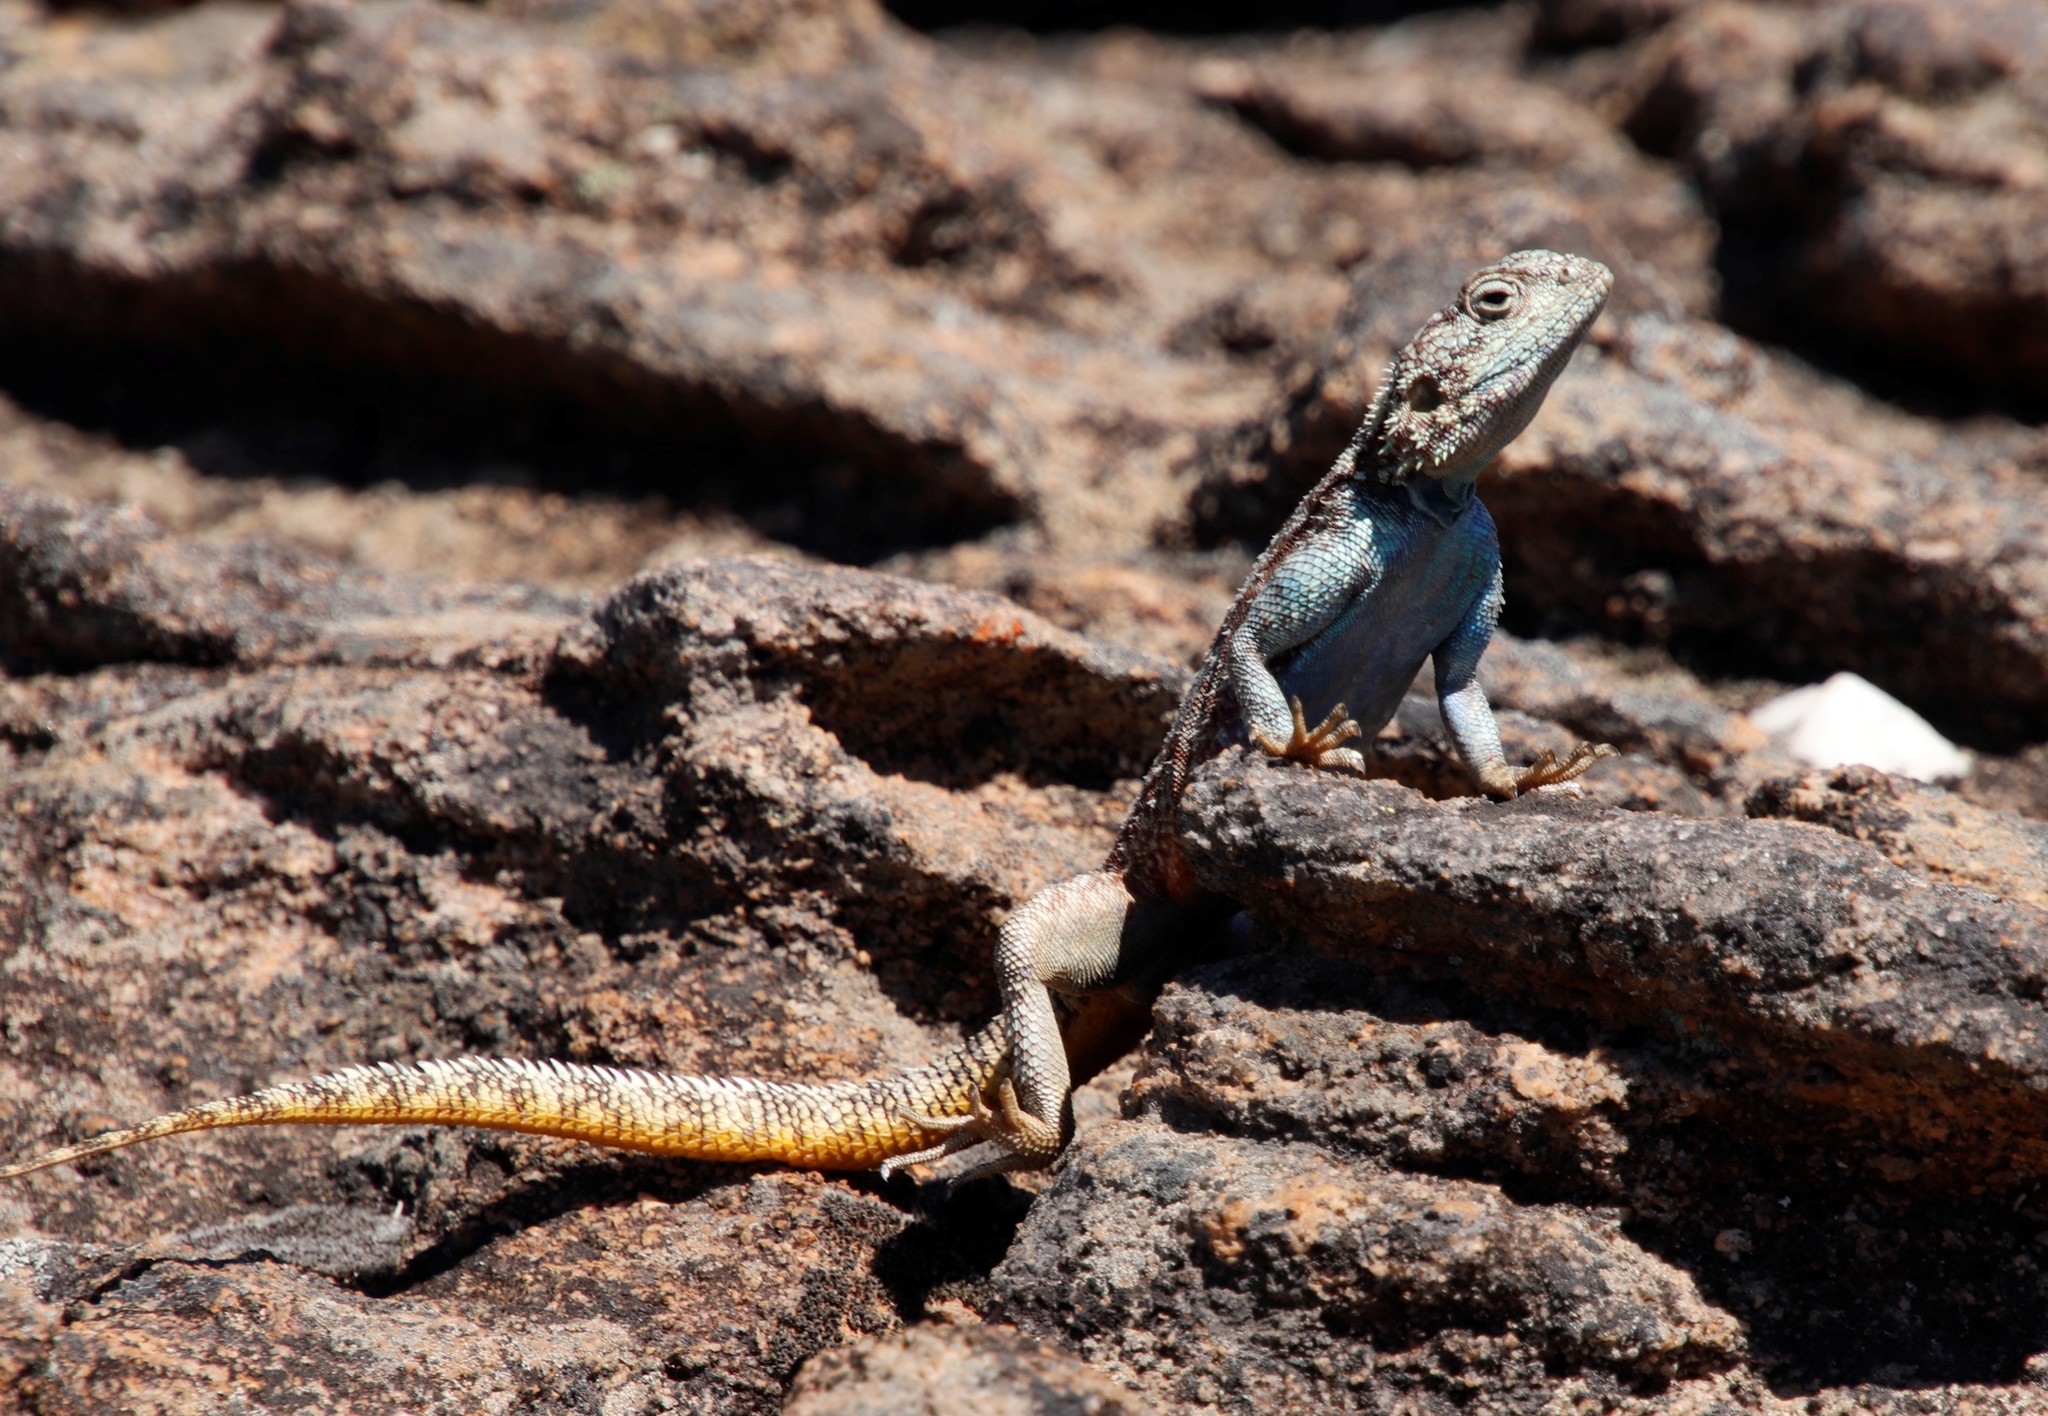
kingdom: Animalia
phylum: Chordata
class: Squamata
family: Agamidae
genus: Agama
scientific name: Agama atra
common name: Southern african rock agama
